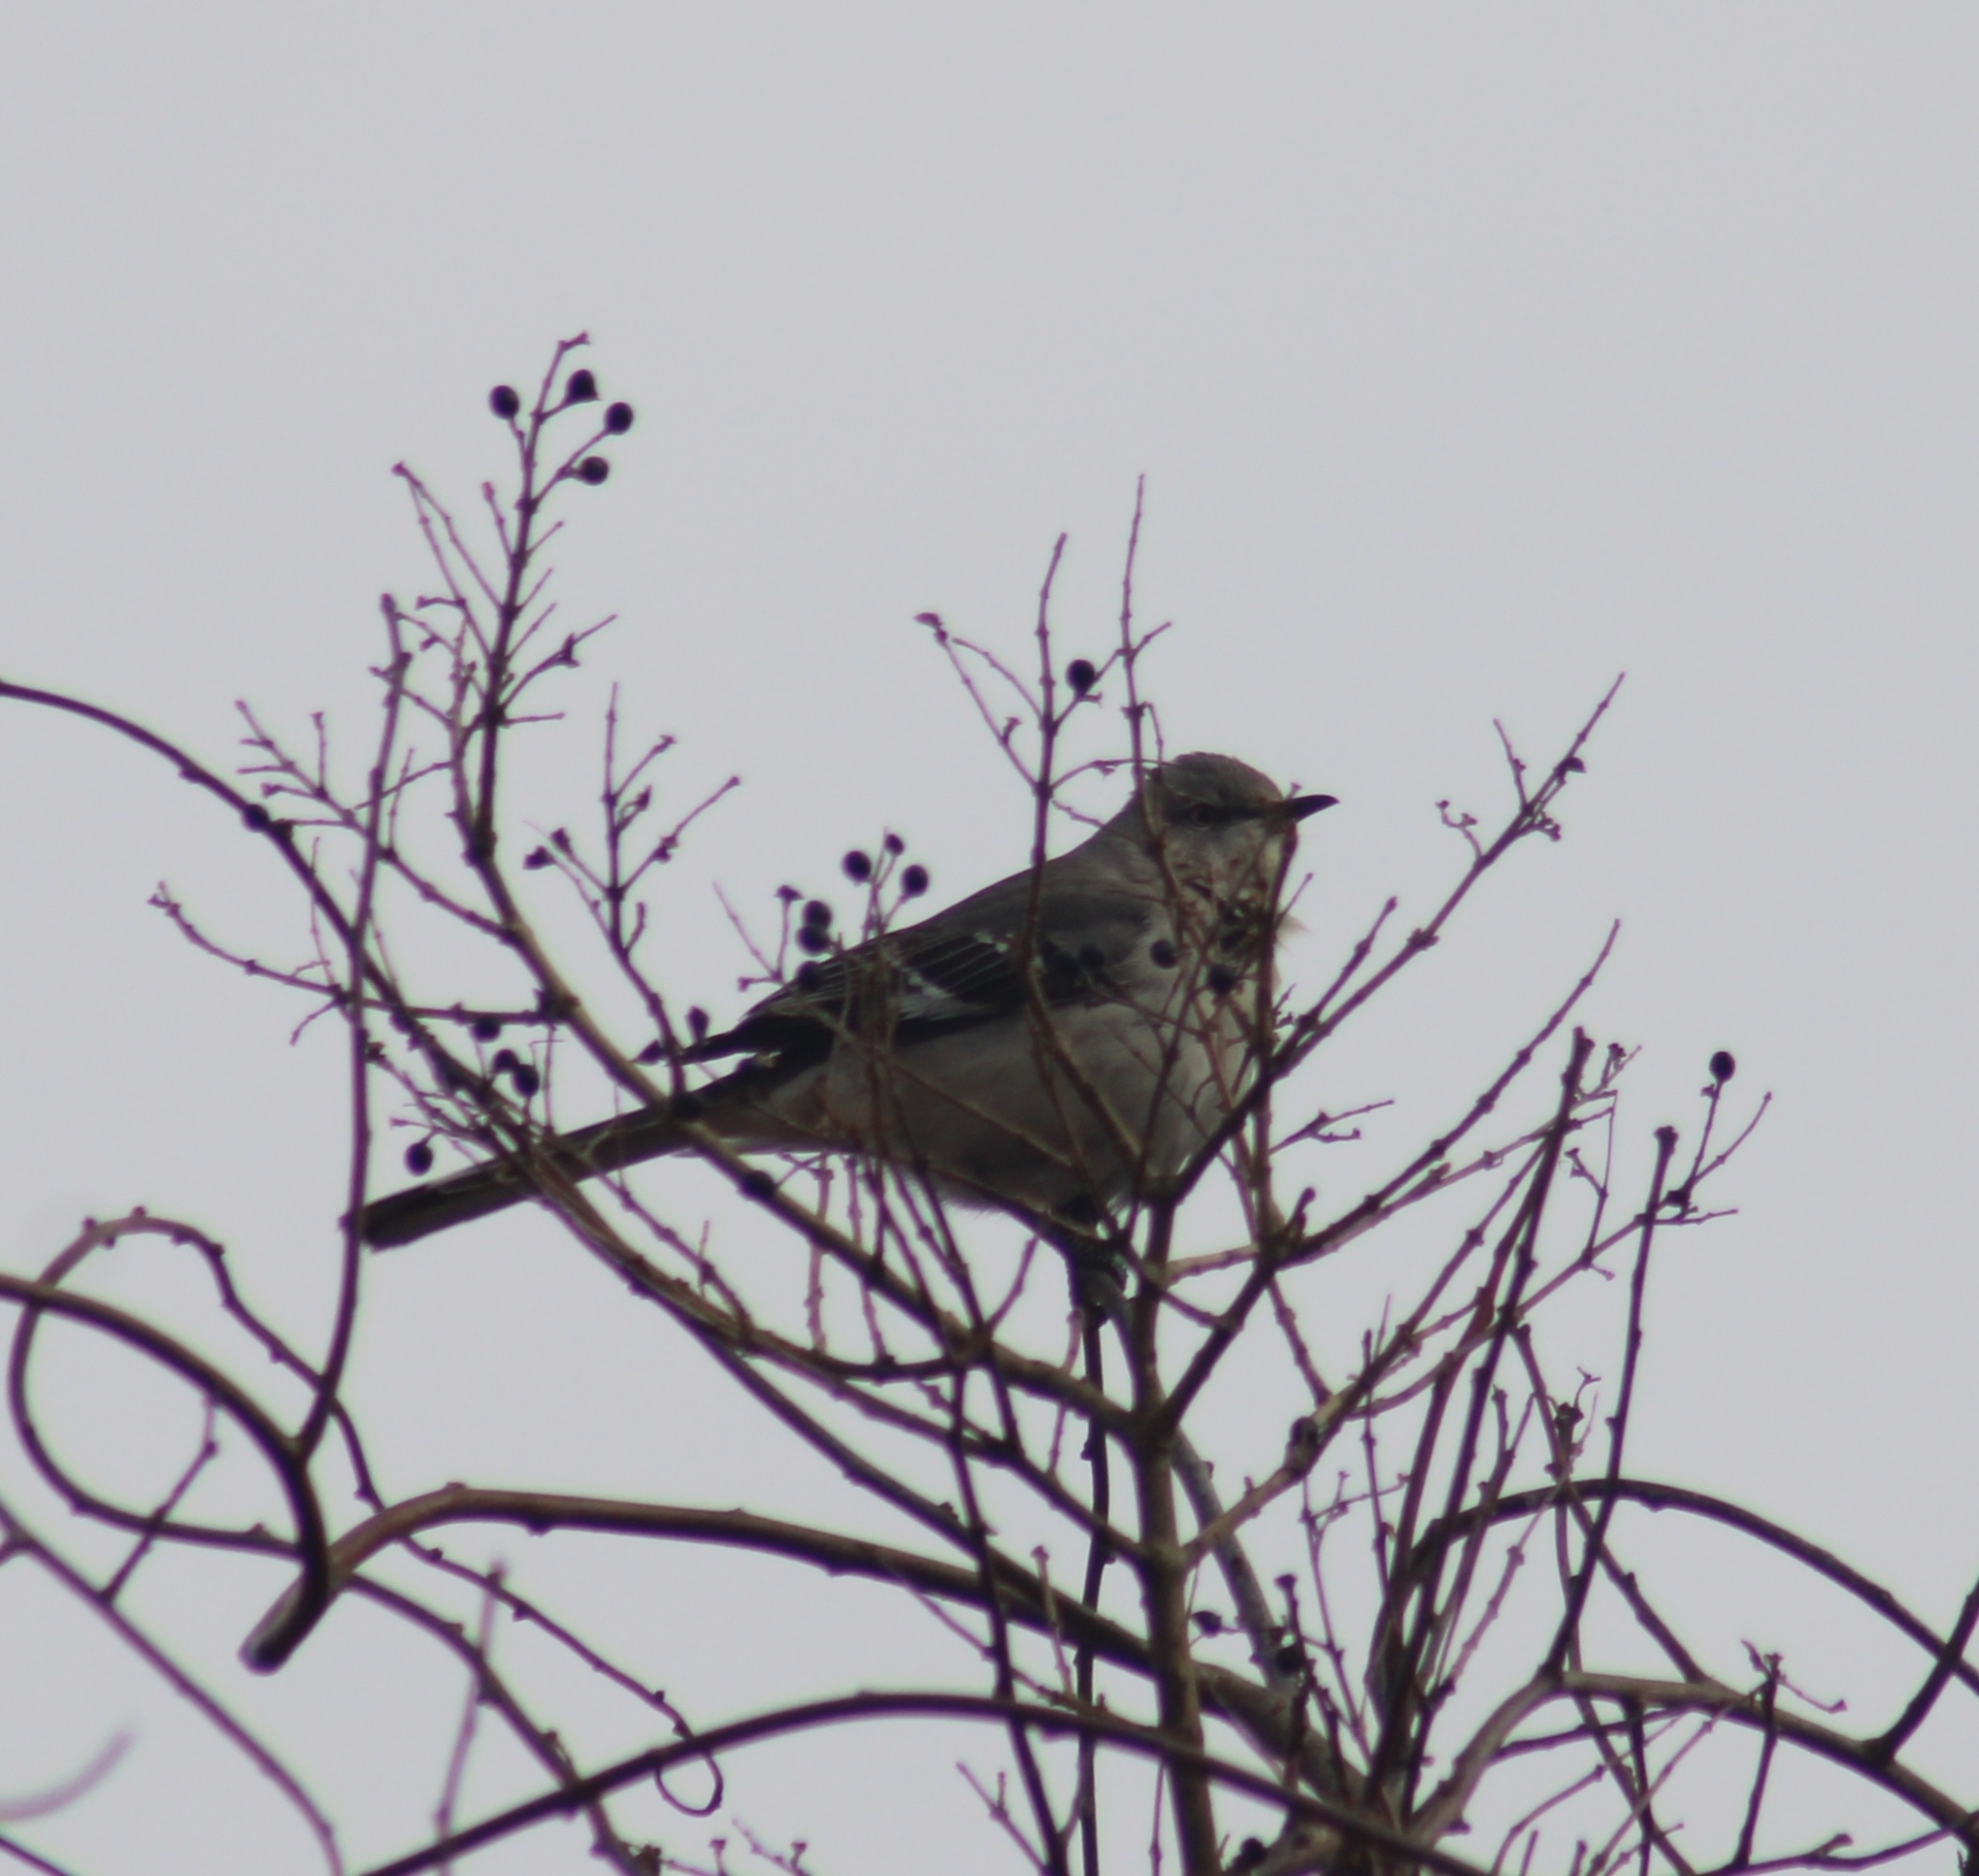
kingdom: Animalia
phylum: Chordata
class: Aves
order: Passeriformes
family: Mimidae
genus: Mimus
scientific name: Mimus polyglottos
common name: Northern mockingbird
